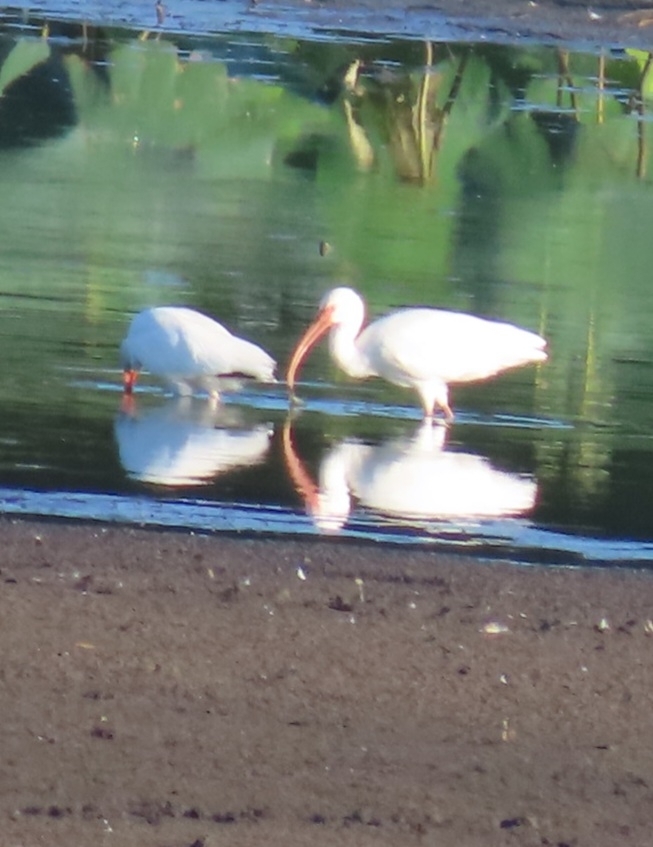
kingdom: Animalia
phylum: Chordata
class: Aves
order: Pelecaniformes
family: Threskiornithidae
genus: Eudocimus
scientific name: Eudocimus albus
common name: White ibis
